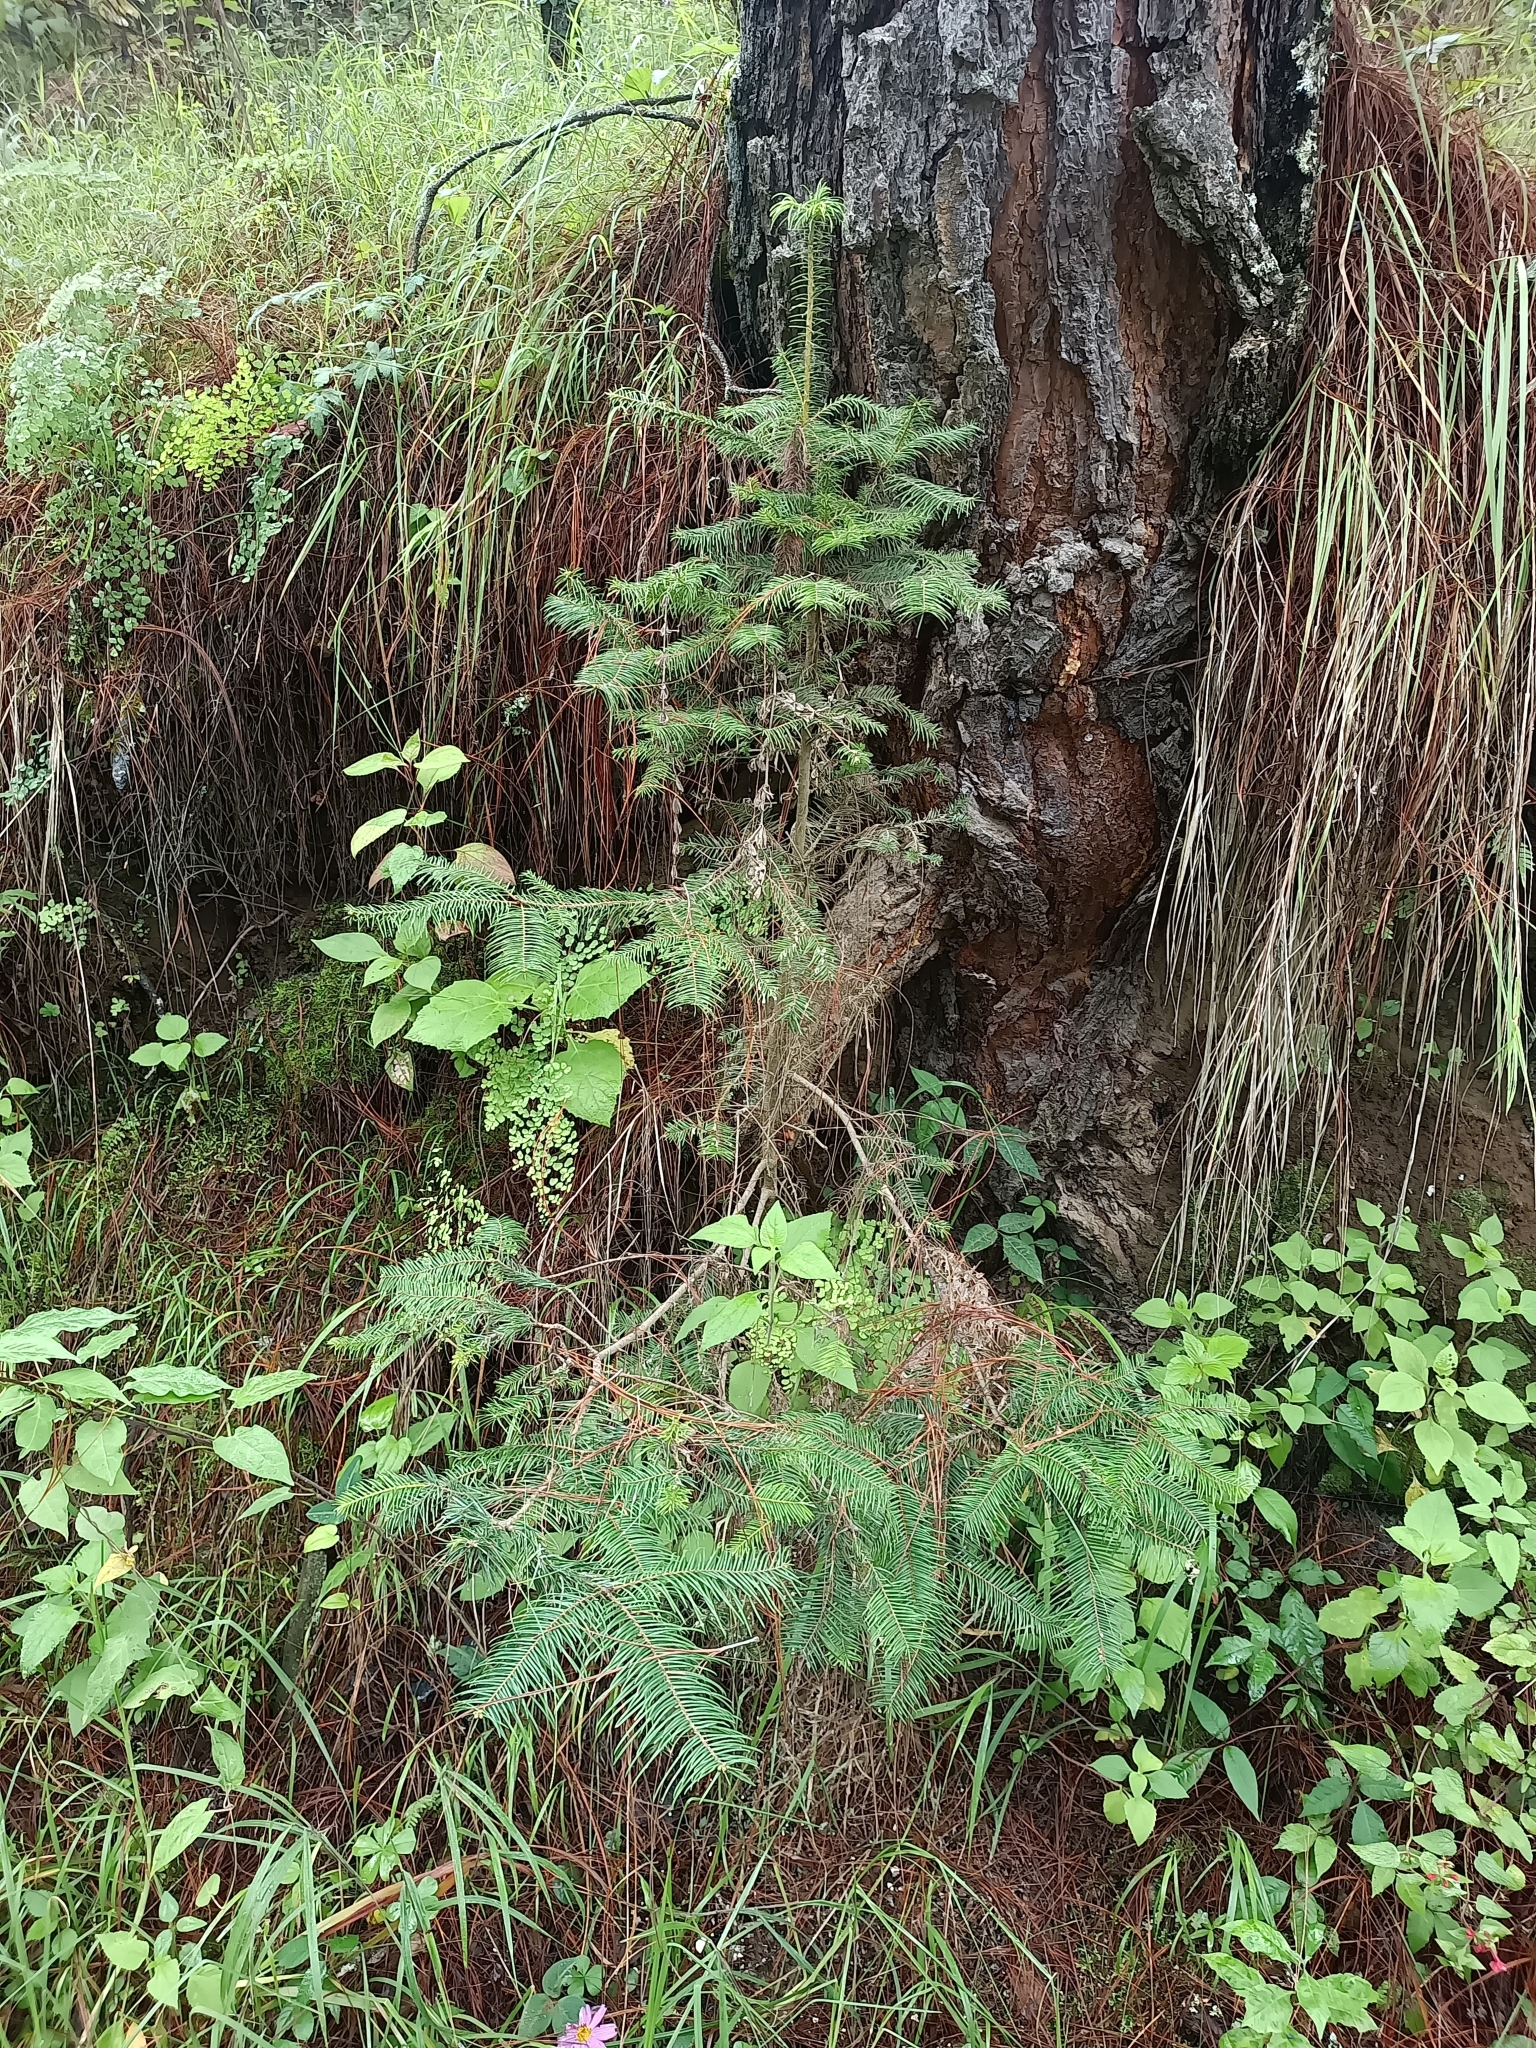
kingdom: Plantae
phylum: Tracheophyta
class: Pinopsida
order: Pinales
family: Pinaceae
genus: Abies
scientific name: Abies guatemalensis
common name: Guatemalan fir
